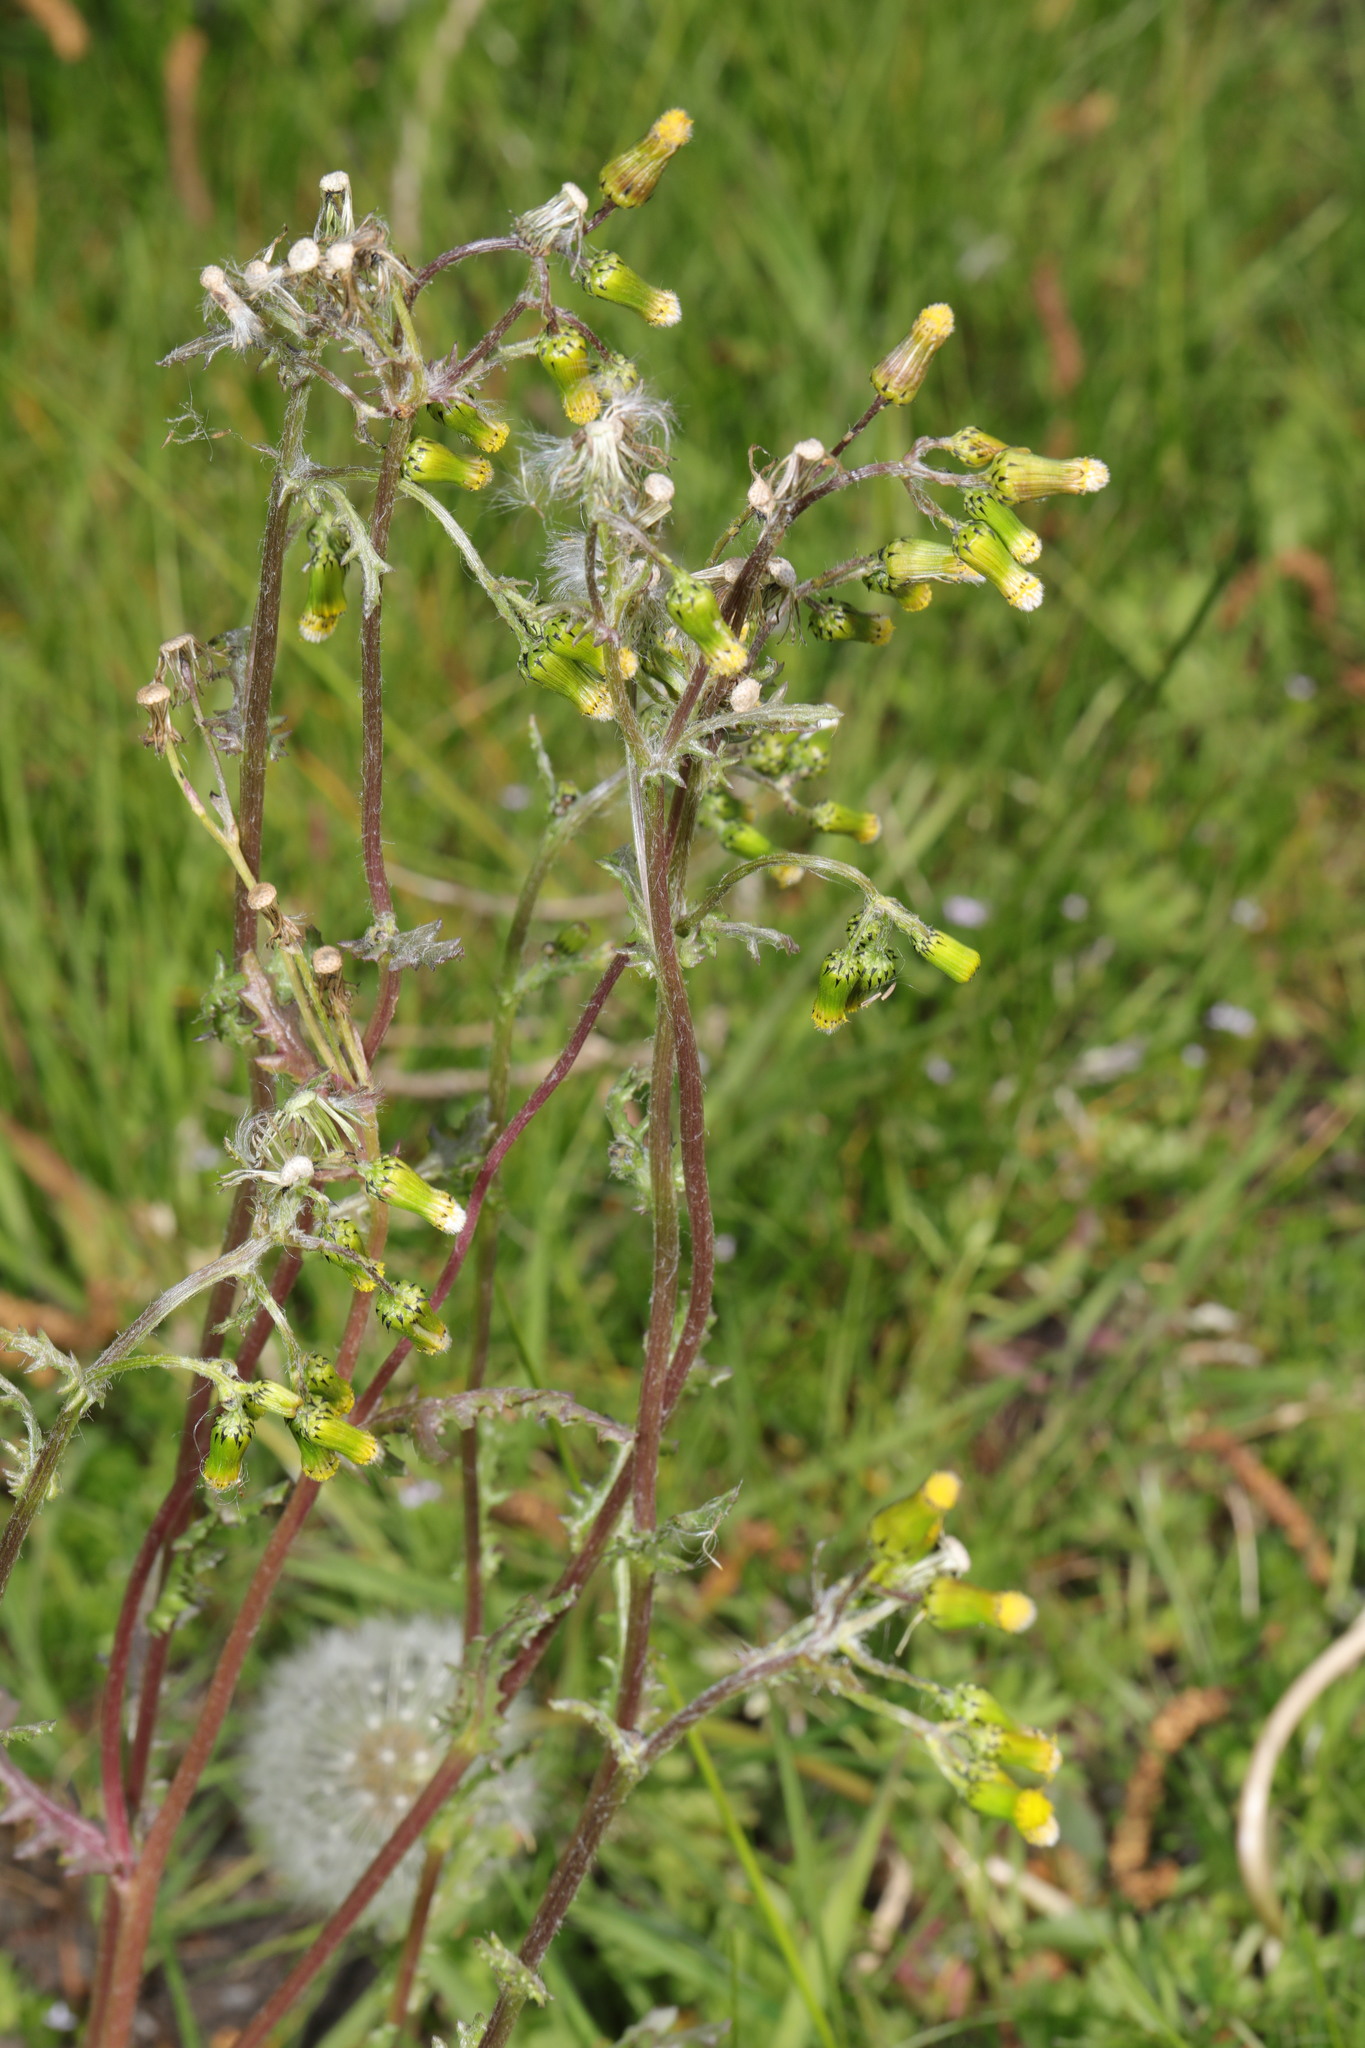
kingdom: Plantae
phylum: Tracheophyta
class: Magnoliopsida
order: Asterales
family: Asteraceae
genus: Senecio
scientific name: Senecio vulgaris
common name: Old-man-in-the-spring
